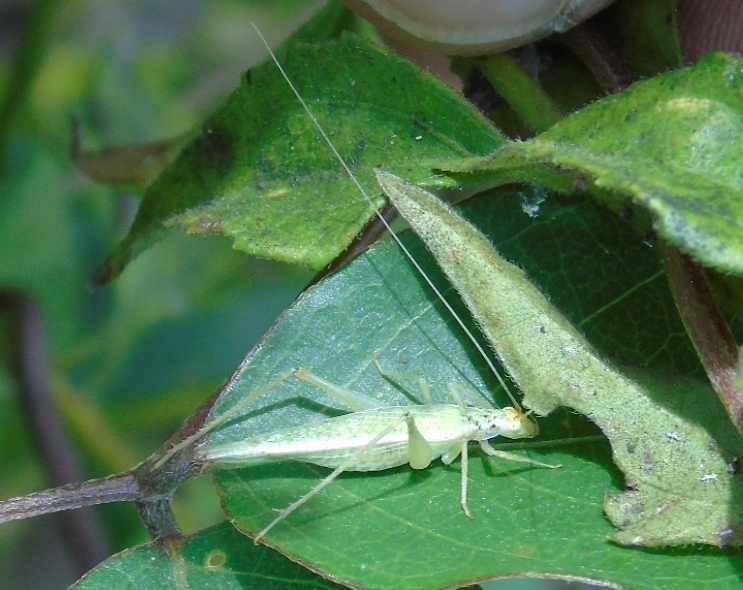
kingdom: Animalia
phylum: Arthropoda
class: Insecta
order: Orthoptera
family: Gryllidae
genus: Oecanthus
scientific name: Oecanthus
